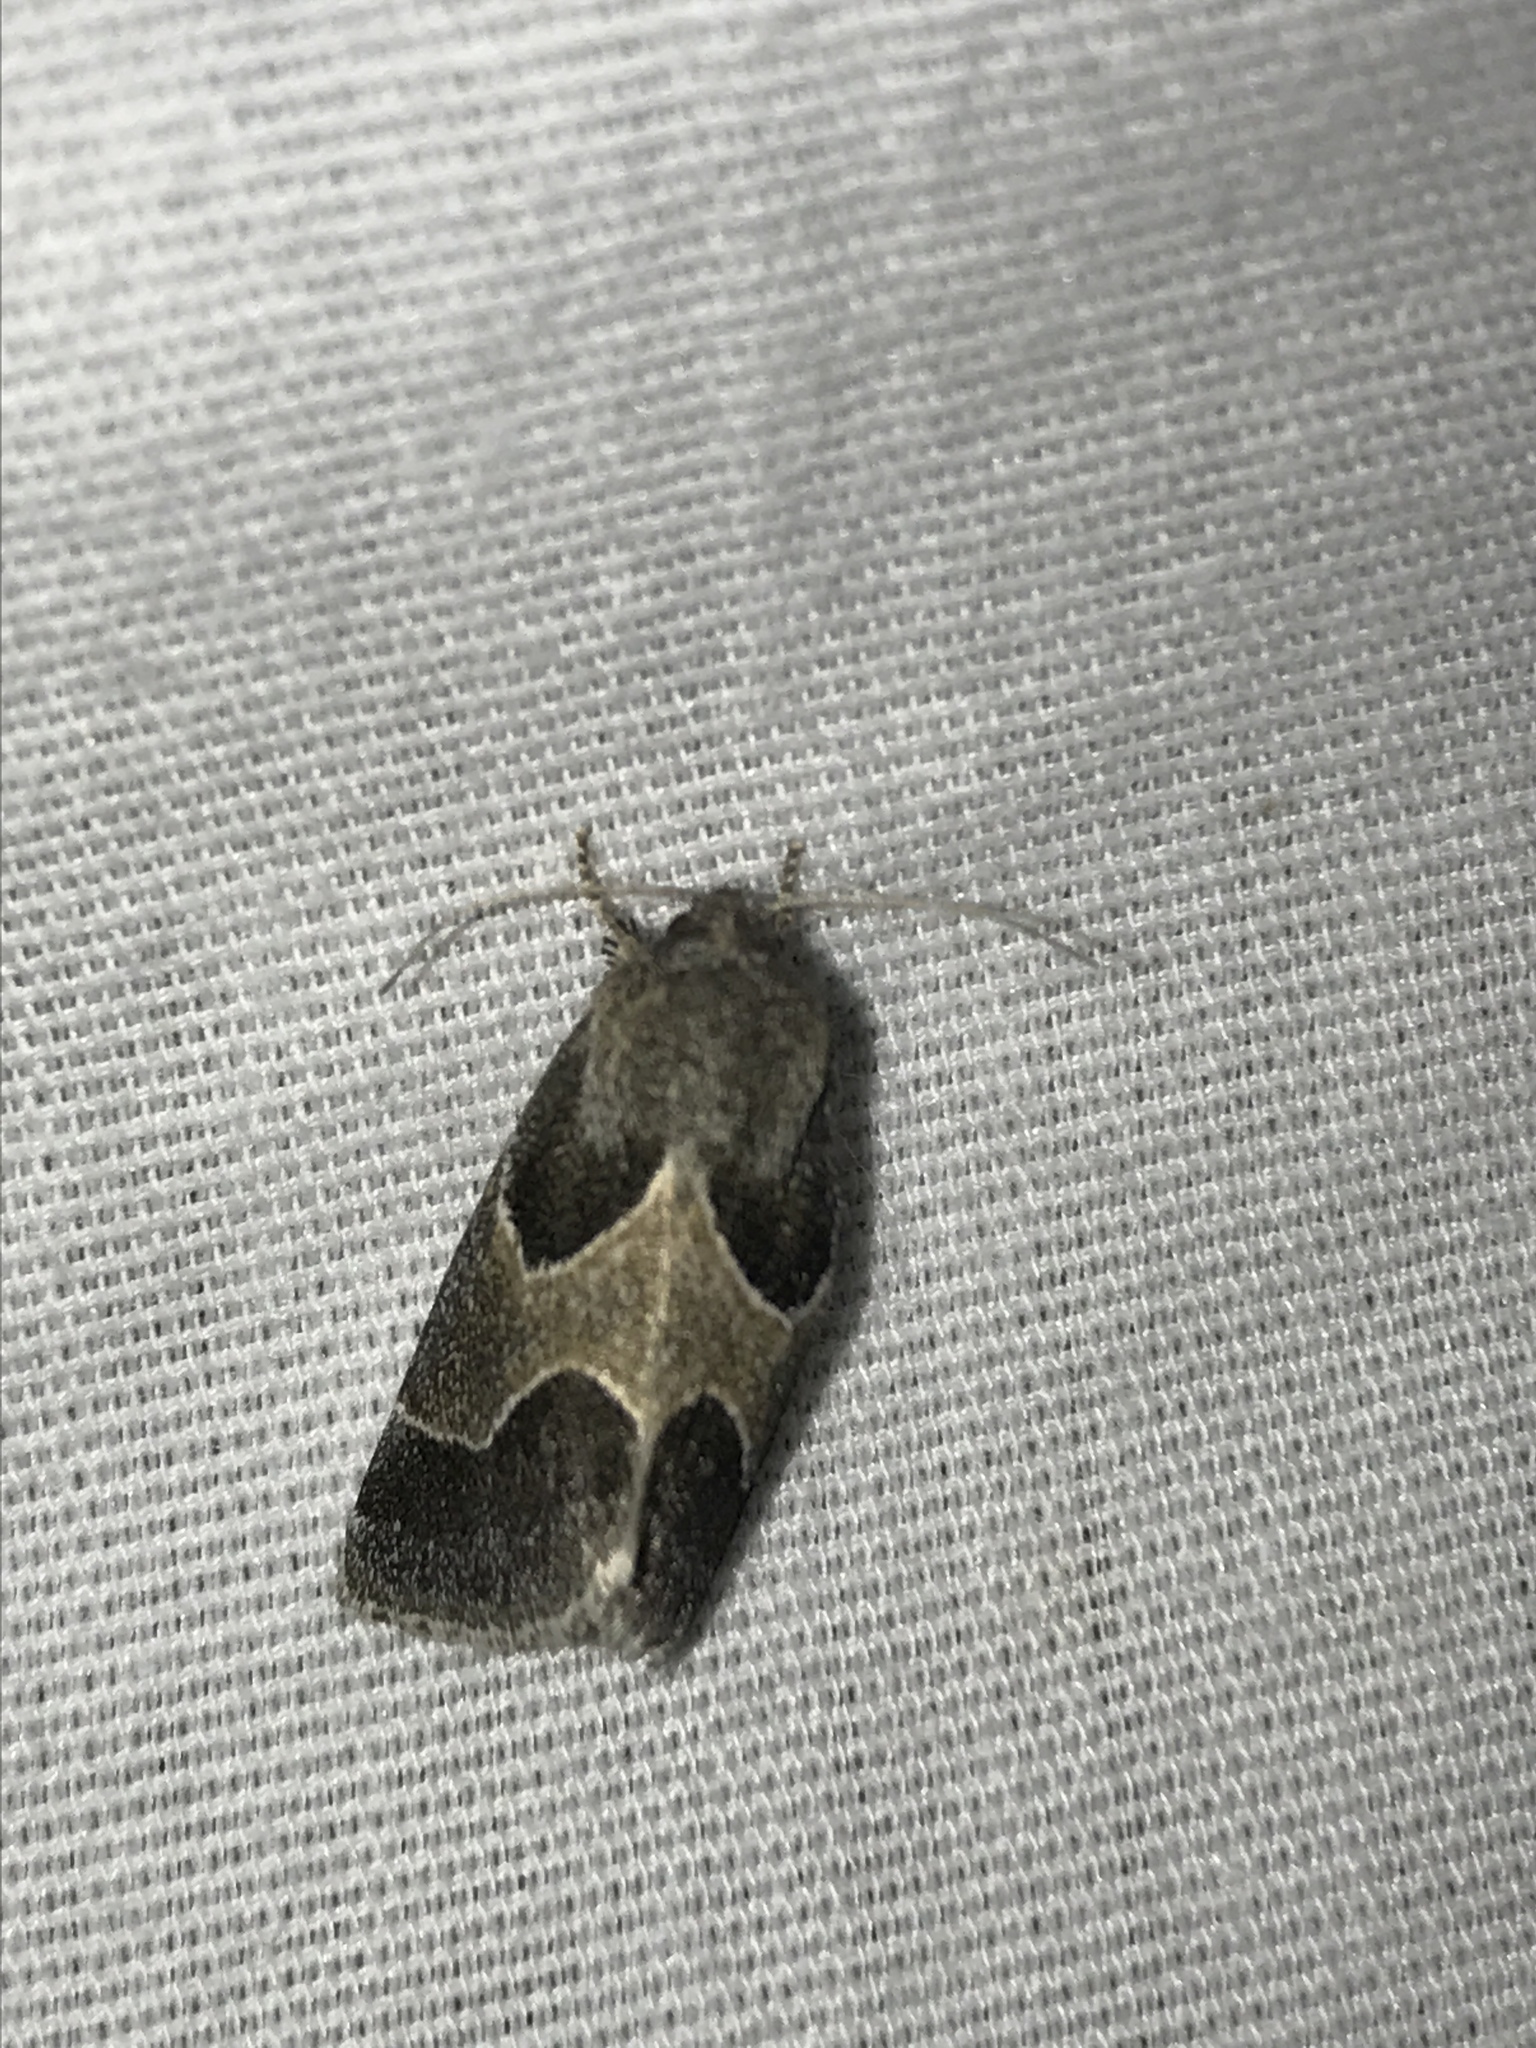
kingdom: Animalia
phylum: Arthropoda
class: Insecta
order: Lepidoptera
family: Noctuidae
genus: Schinia
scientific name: Schinia rivulosa
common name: Scarce meal-moth
